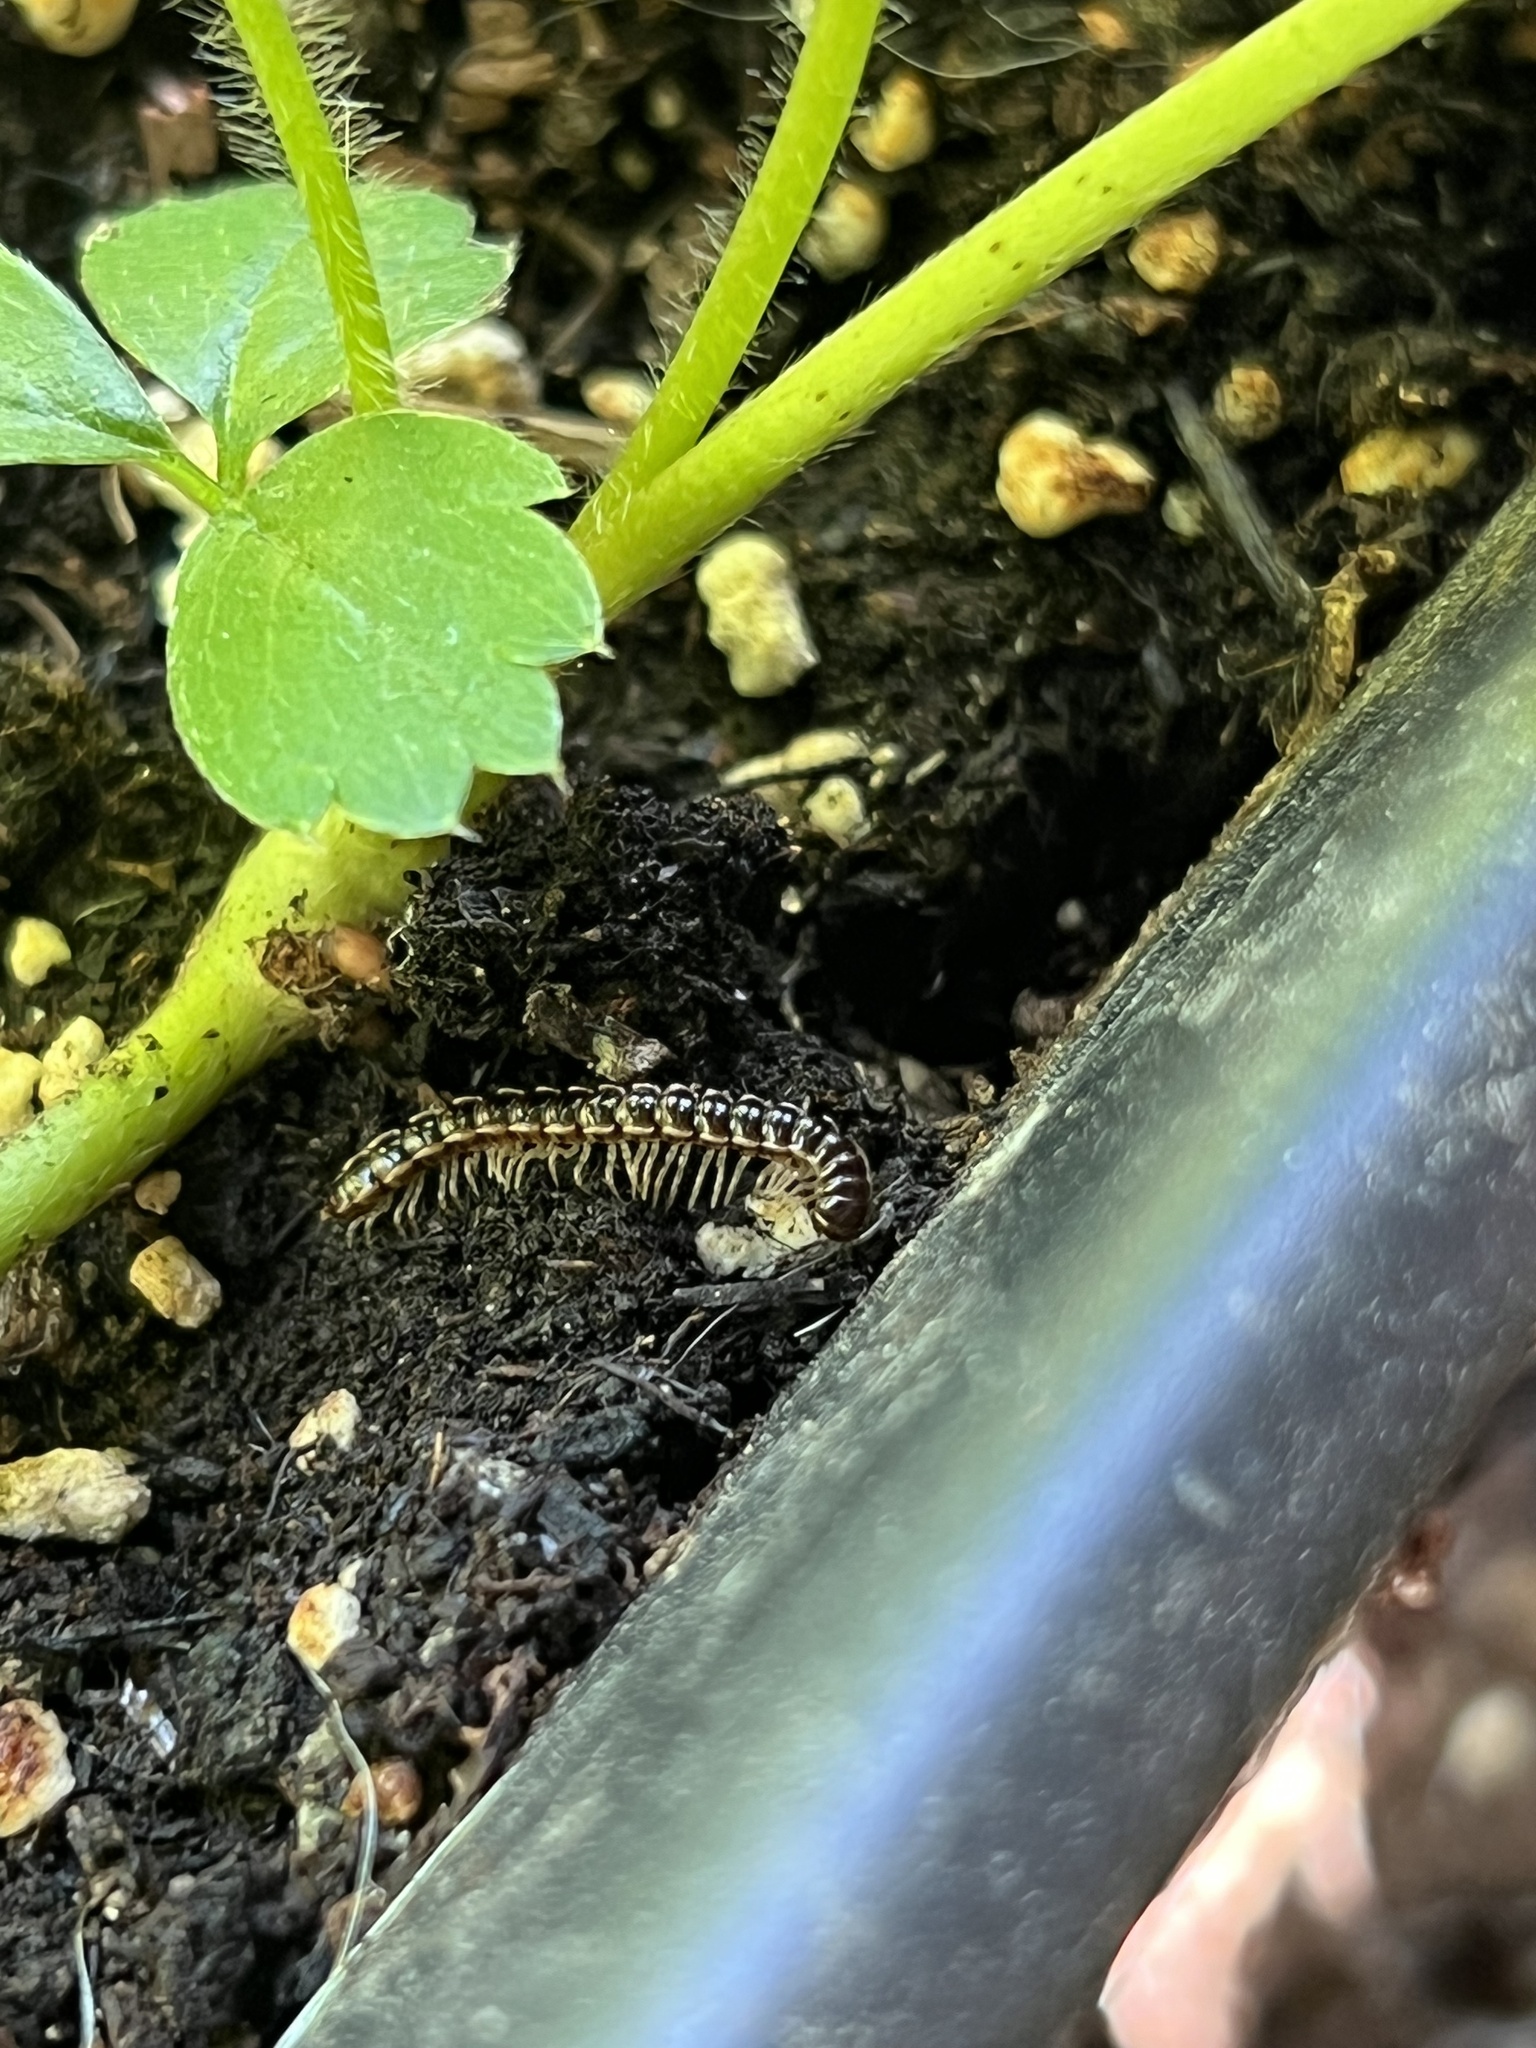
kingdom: Animalia
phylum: Arthropoda
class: Diplopoda
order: Polydesmida
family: Paradoxosomatidae
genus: Oxidus
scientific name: Oxidus gracilis
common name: Greenhouse millipede
